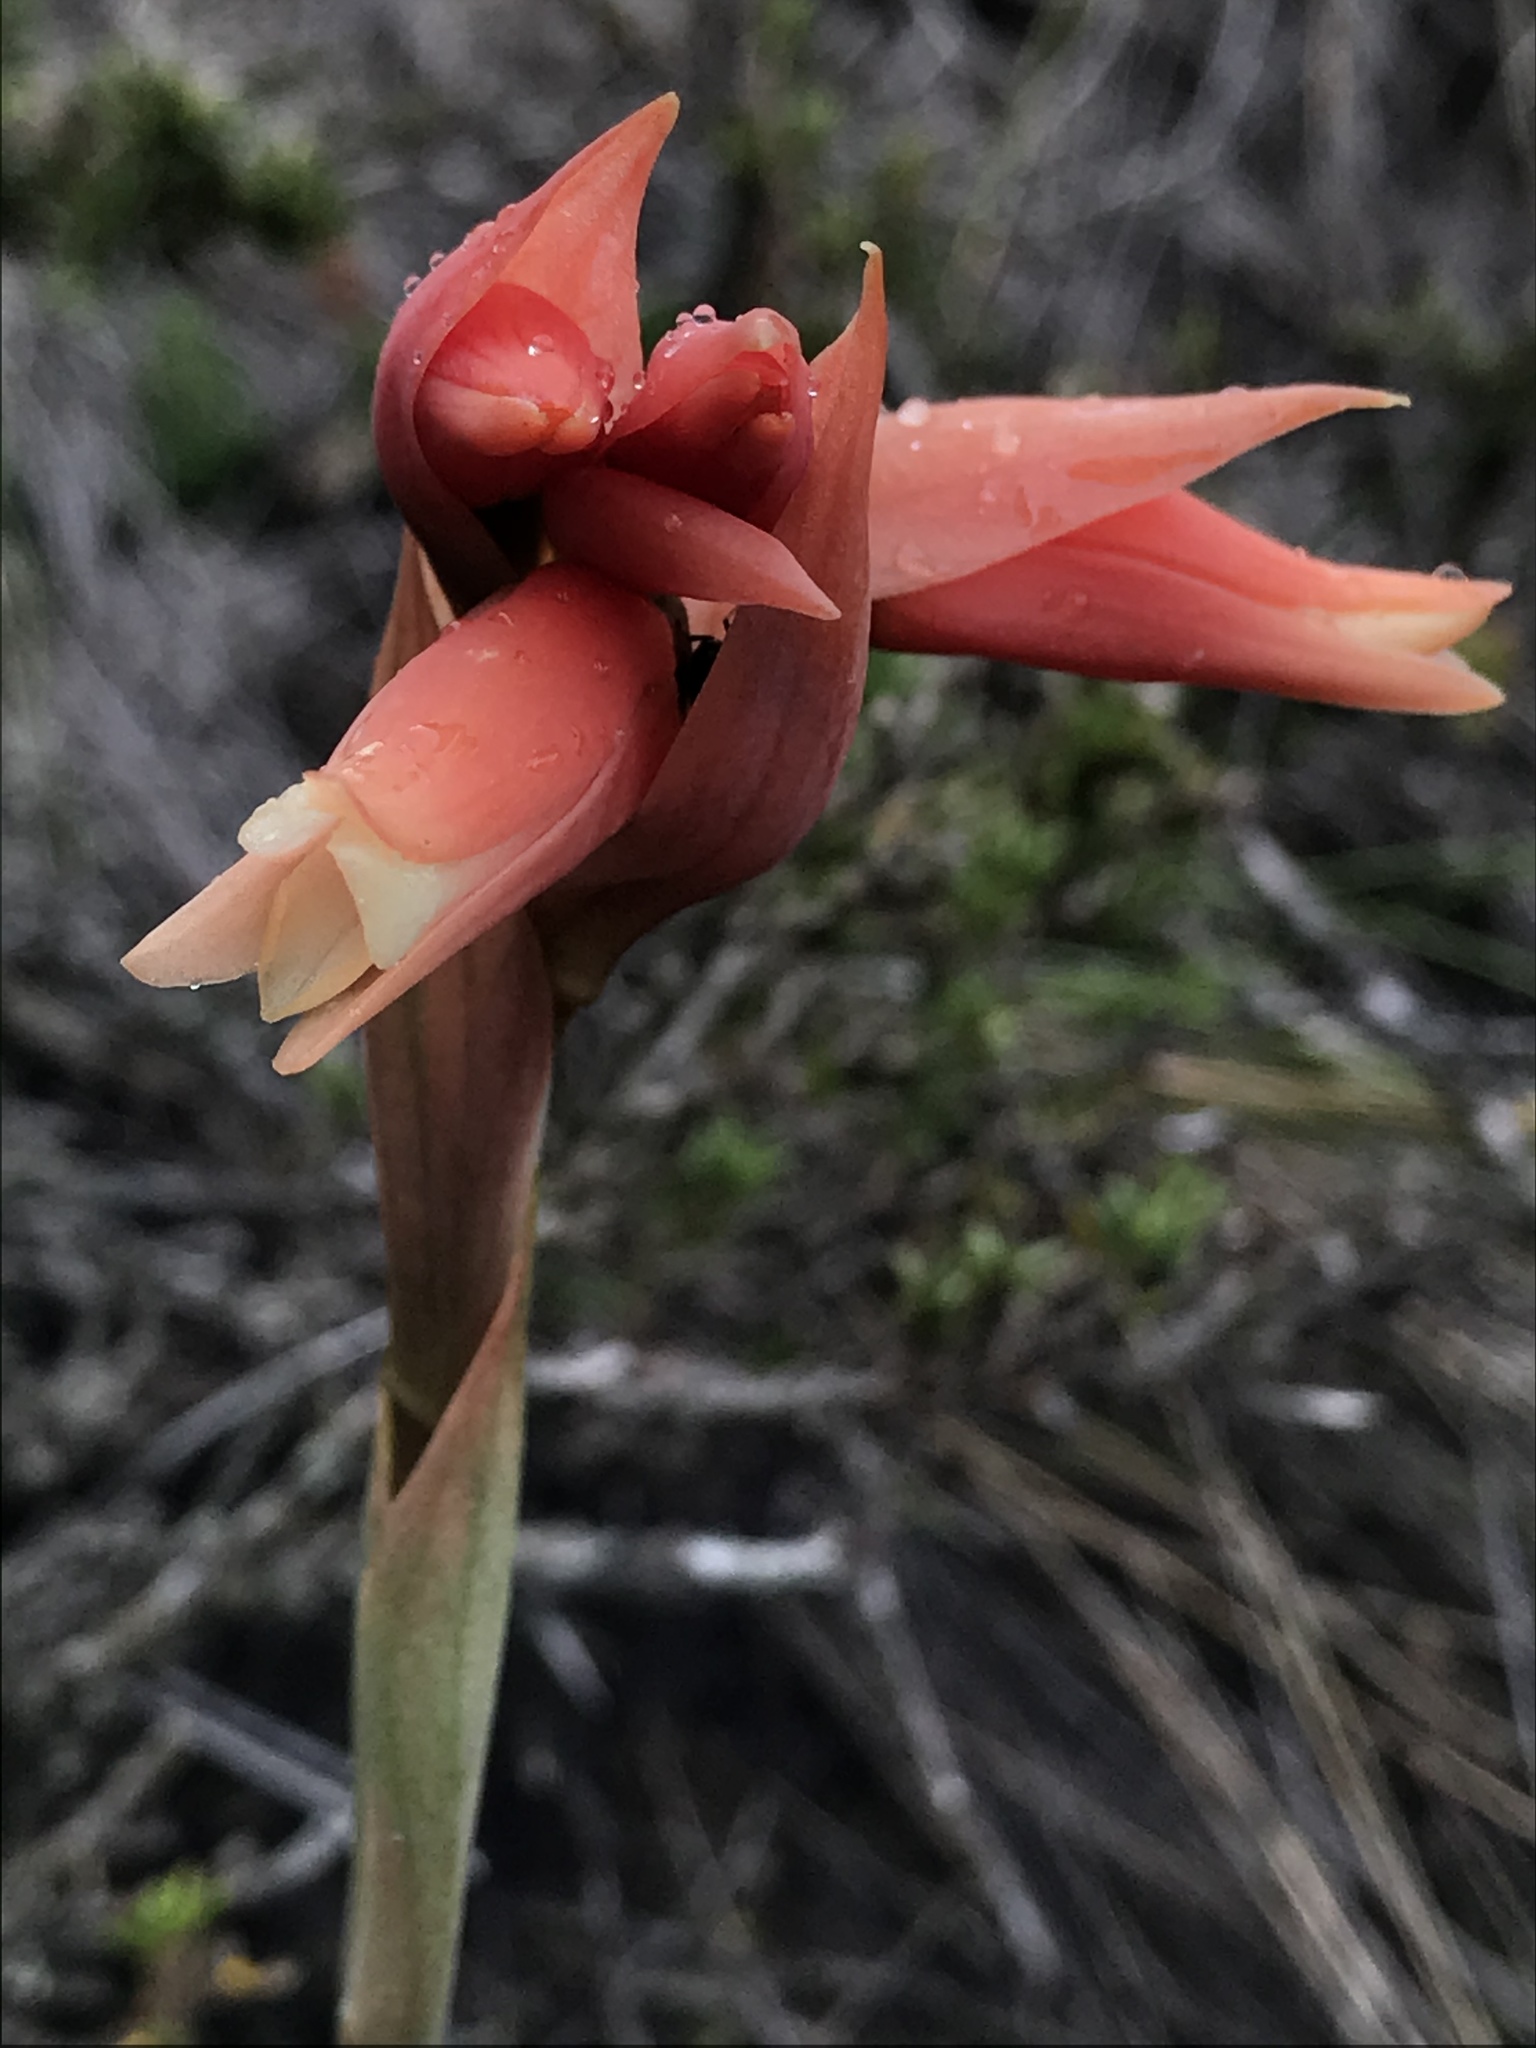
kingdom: Plantae
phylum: Tracheophyta
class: Liliopsida
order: Asparagales
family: Orchidaceae
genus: Stenorrhynchos
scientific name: Stenorrhynchos vaginatum
